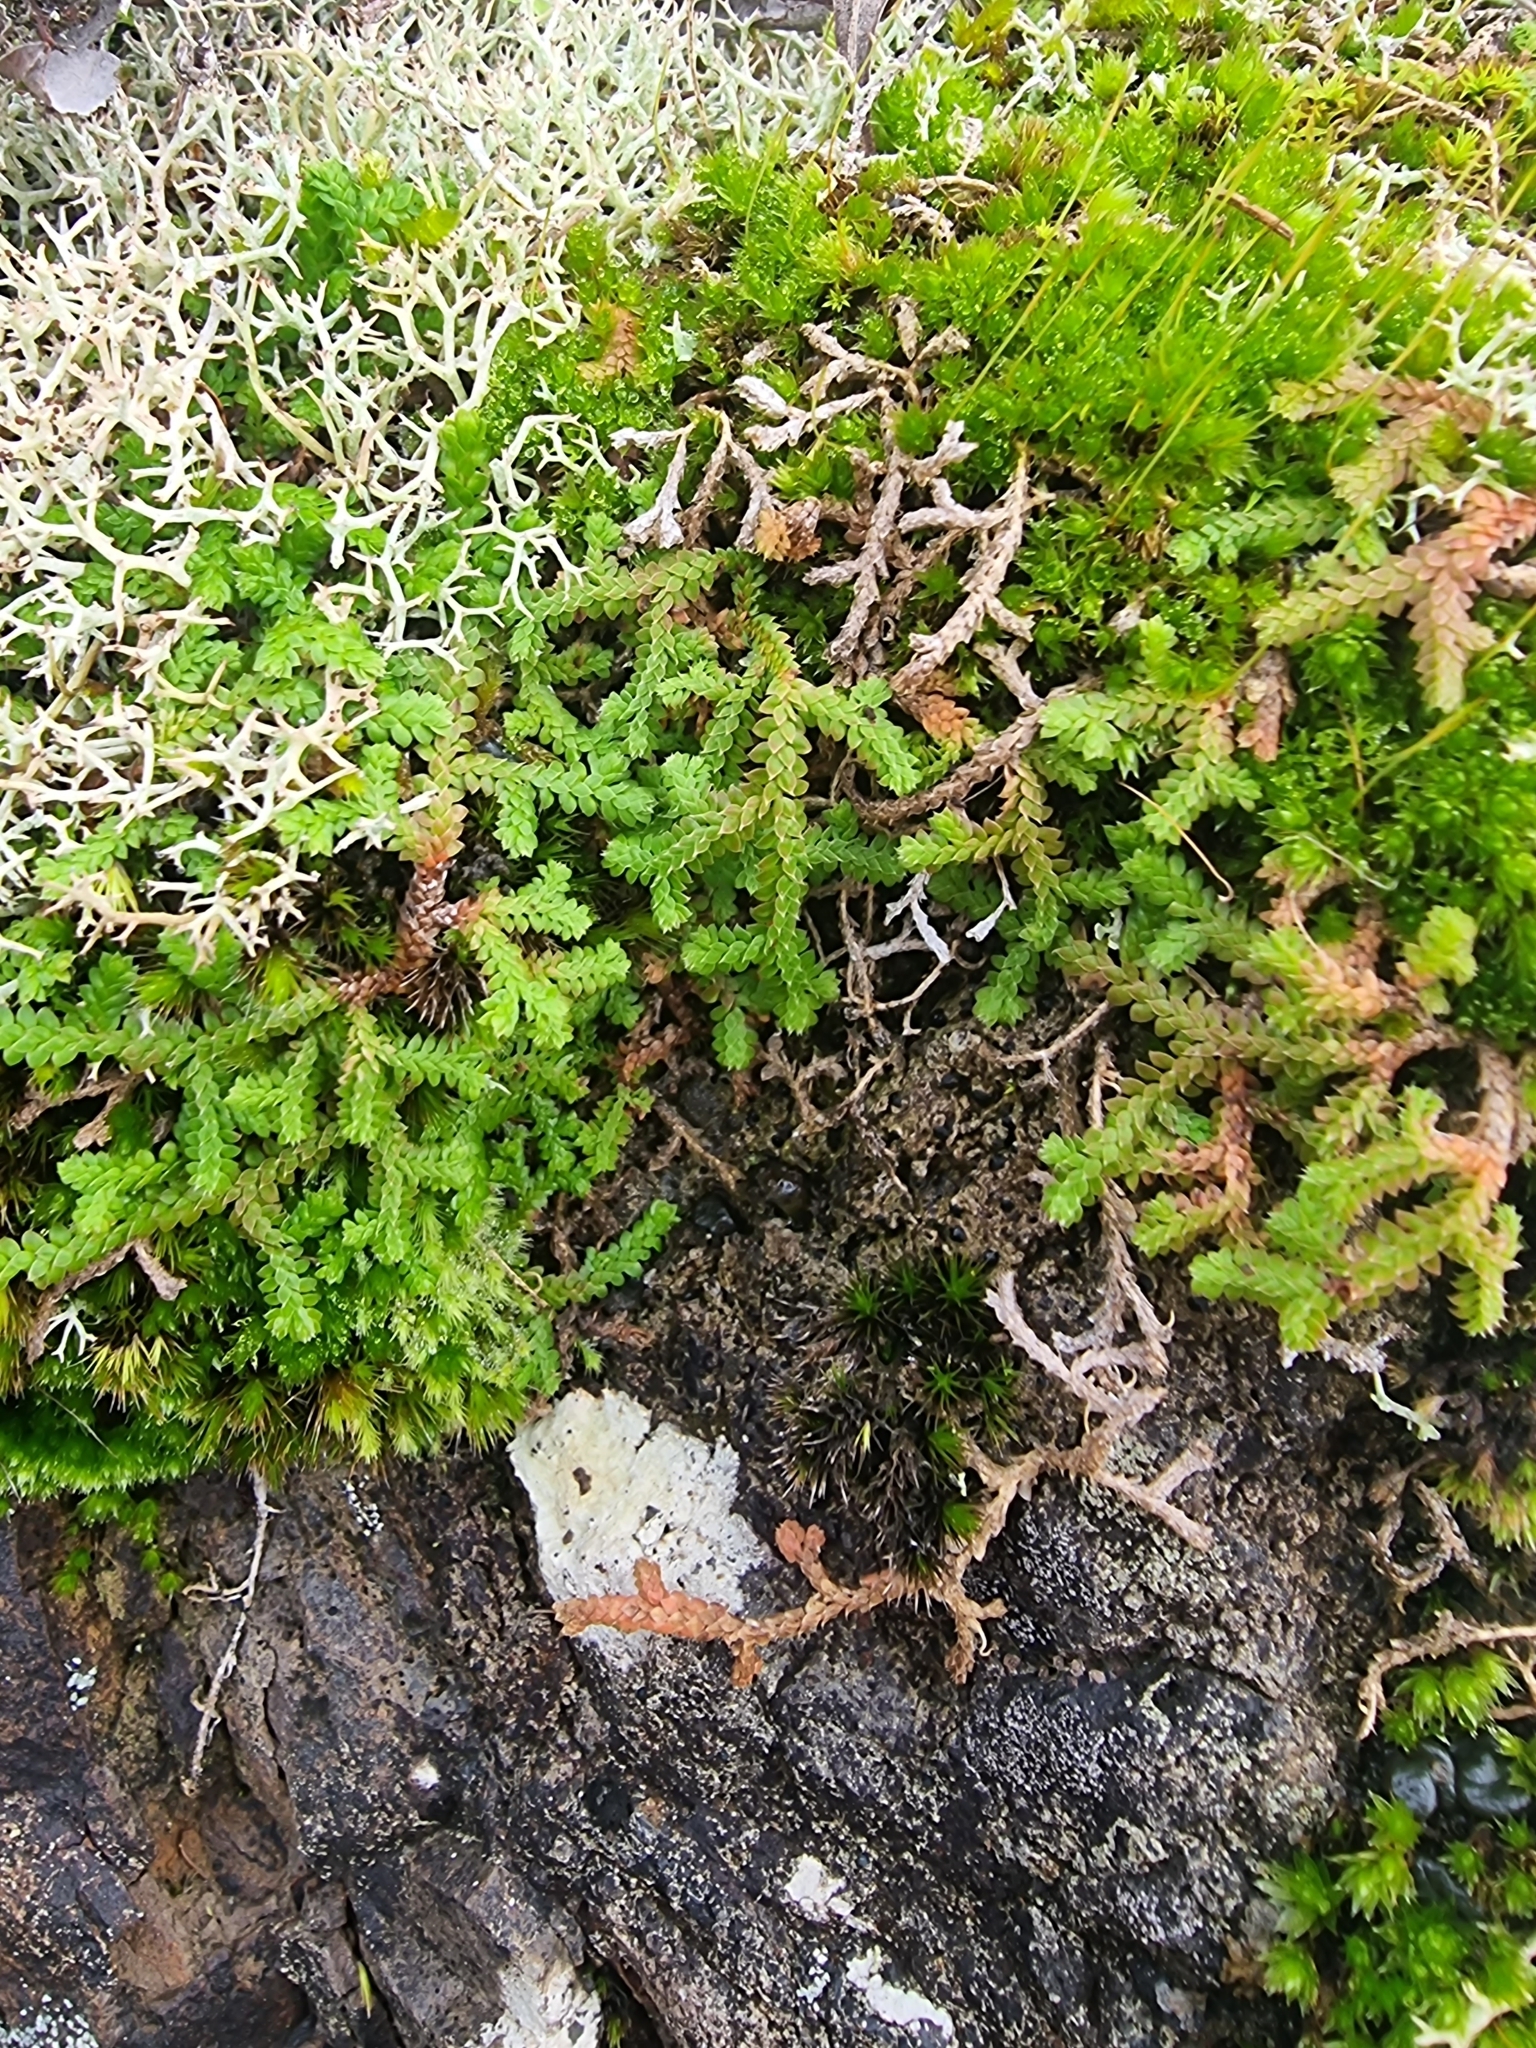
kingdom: Plantae
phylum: Tracheophyta
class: Lycopodiopsida
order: Selaginellales
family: Selaginellaceae
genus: Selaginella
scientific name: Selaginella denticulata
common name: Toothed-leaved clubmoss
